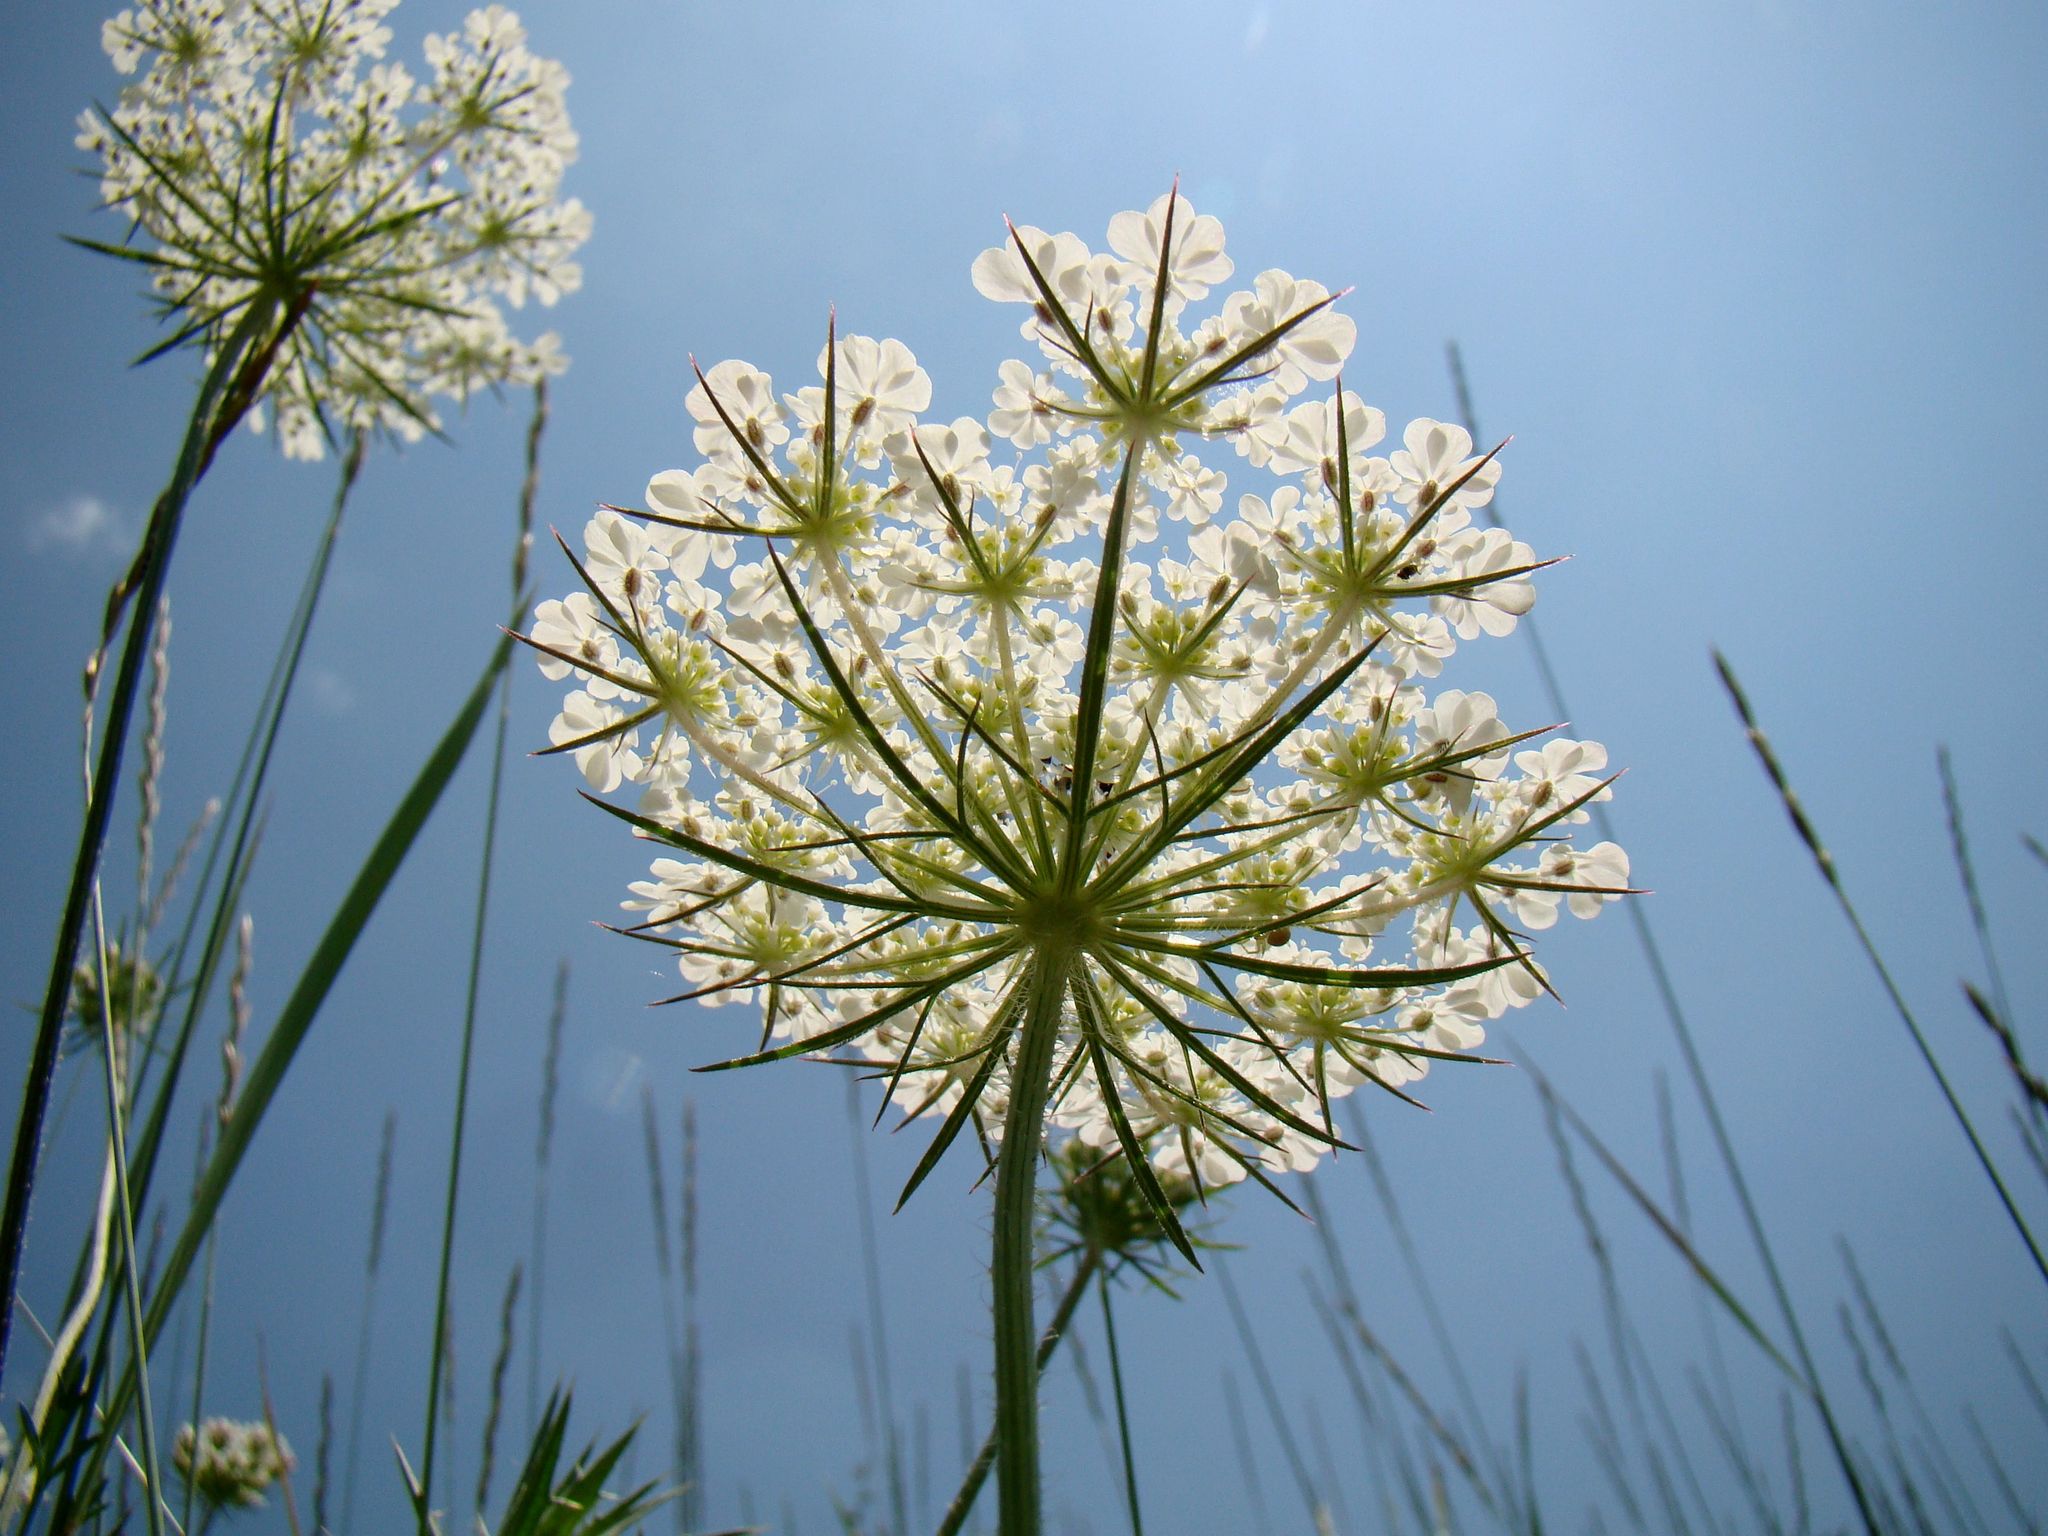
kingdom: Plantae
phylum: Tracheophyta
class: Magnoliopsida
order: Apiales
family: Apiaceae
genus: Daucus
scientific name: Daucus carota
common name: Wild carrot
